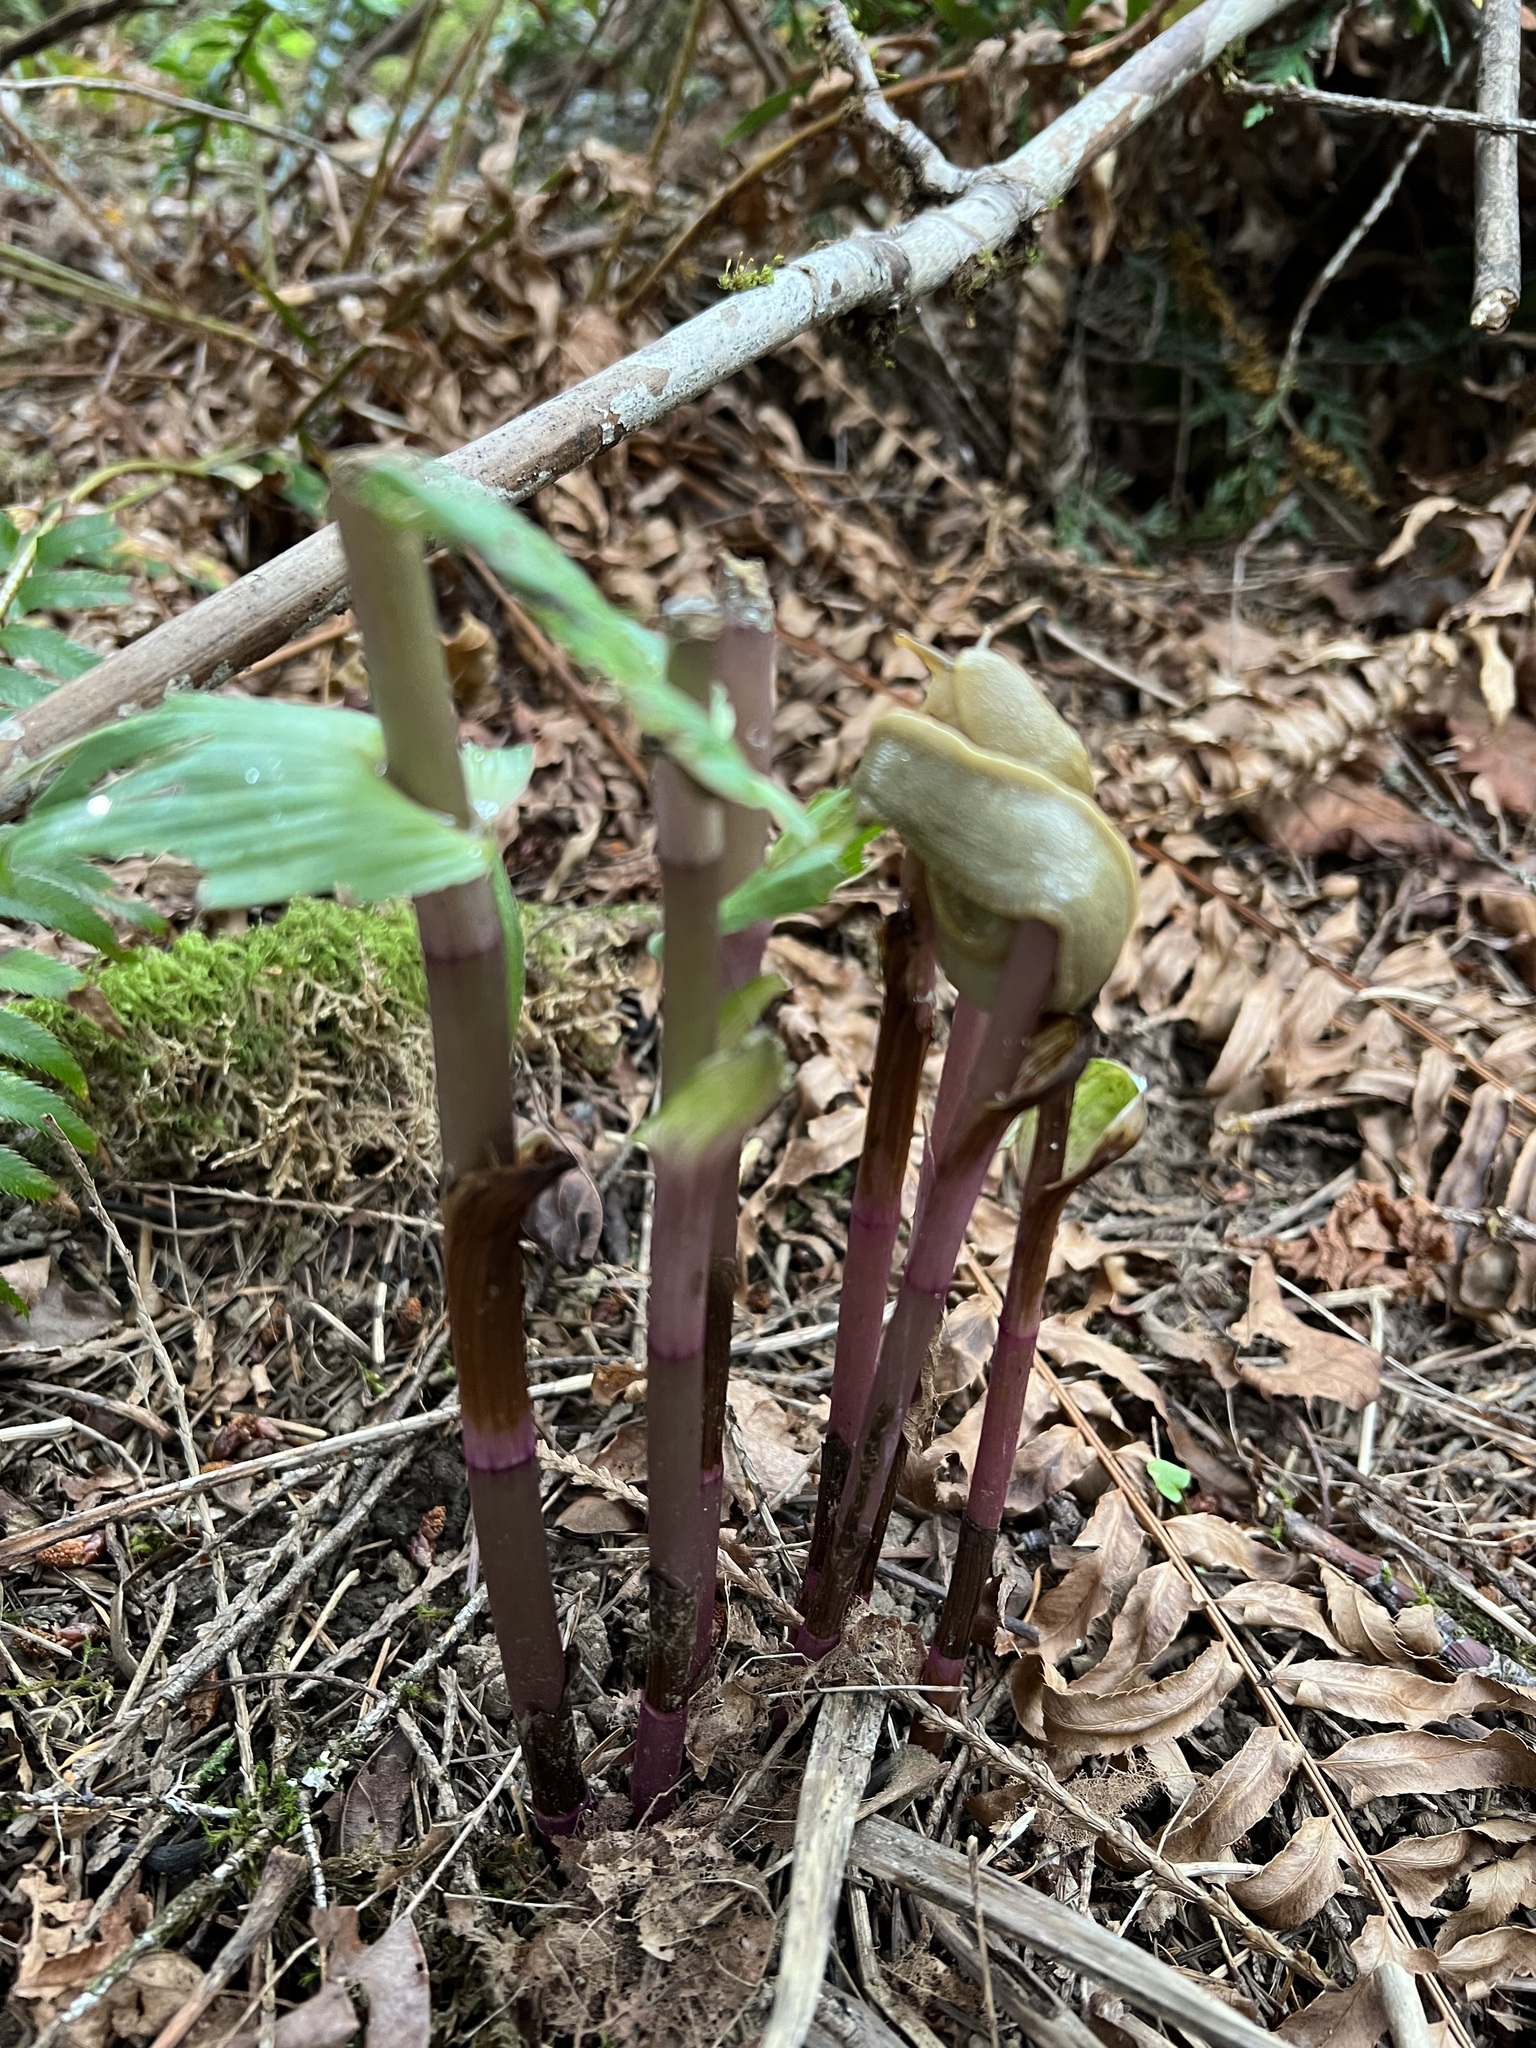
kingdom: Animalia
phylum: Mollusca
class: Gastropoda
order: Stylommatophora
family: Ariolimacidae
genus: Ariolimax
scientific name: Ariolimax columbianus
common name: Pacific banana slug
